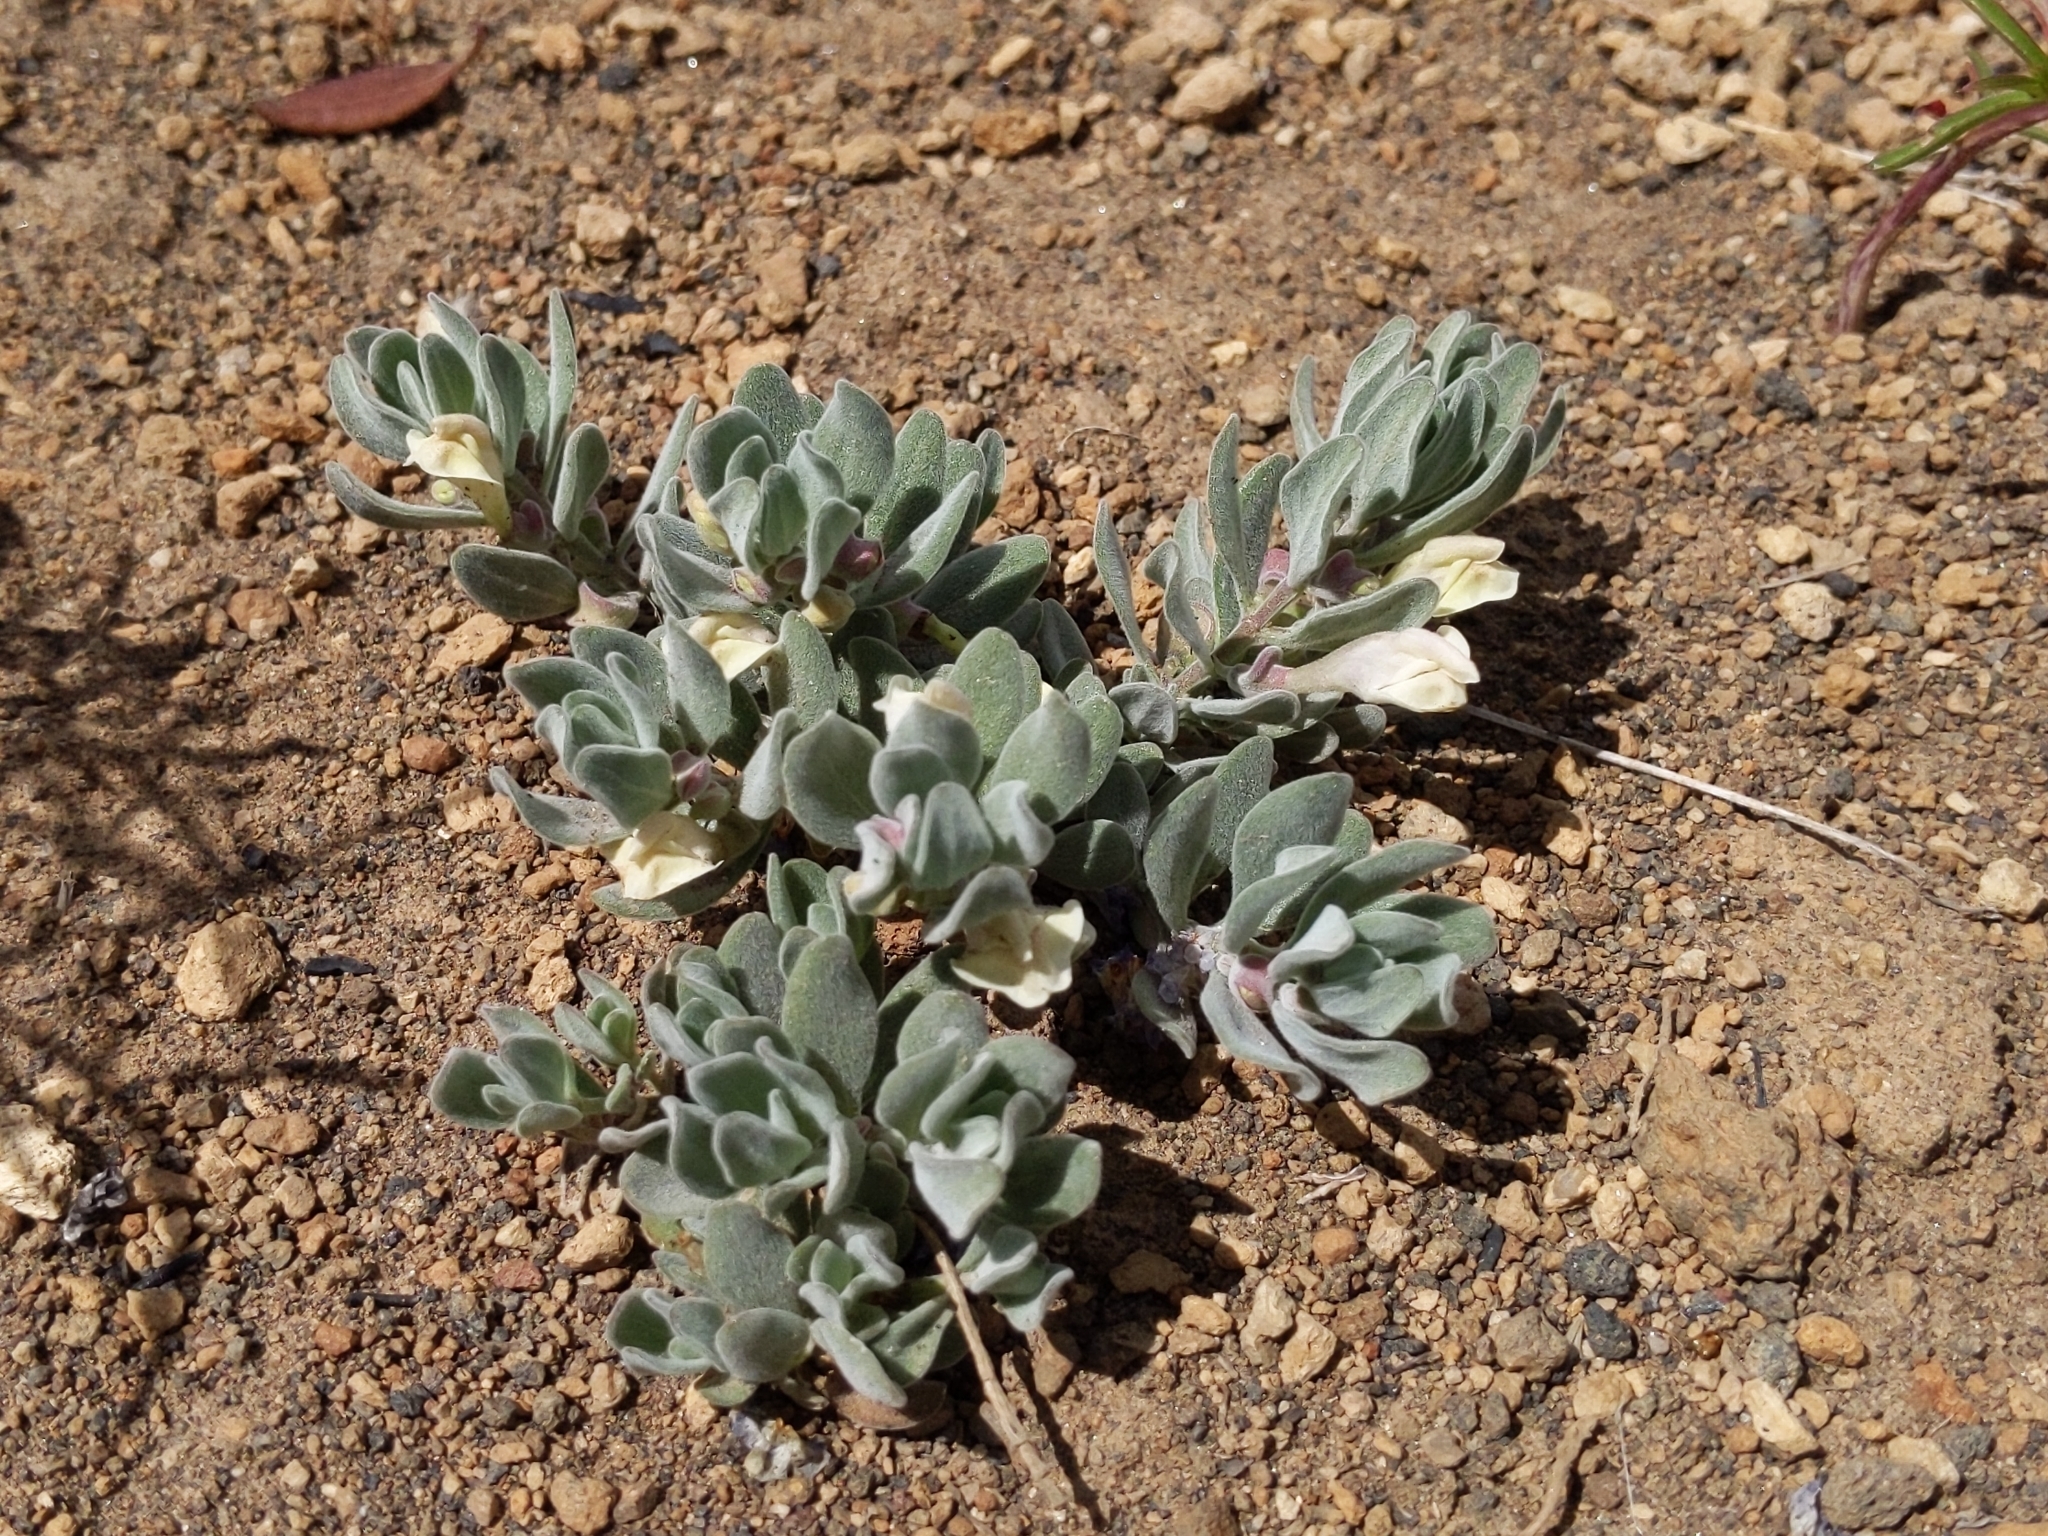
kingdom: Plantae
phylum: Tracheophyta
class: Magnoliopsida
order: Lamiales
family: Lamiaceae
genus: Scutellaria
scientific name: Scutellaria nana
